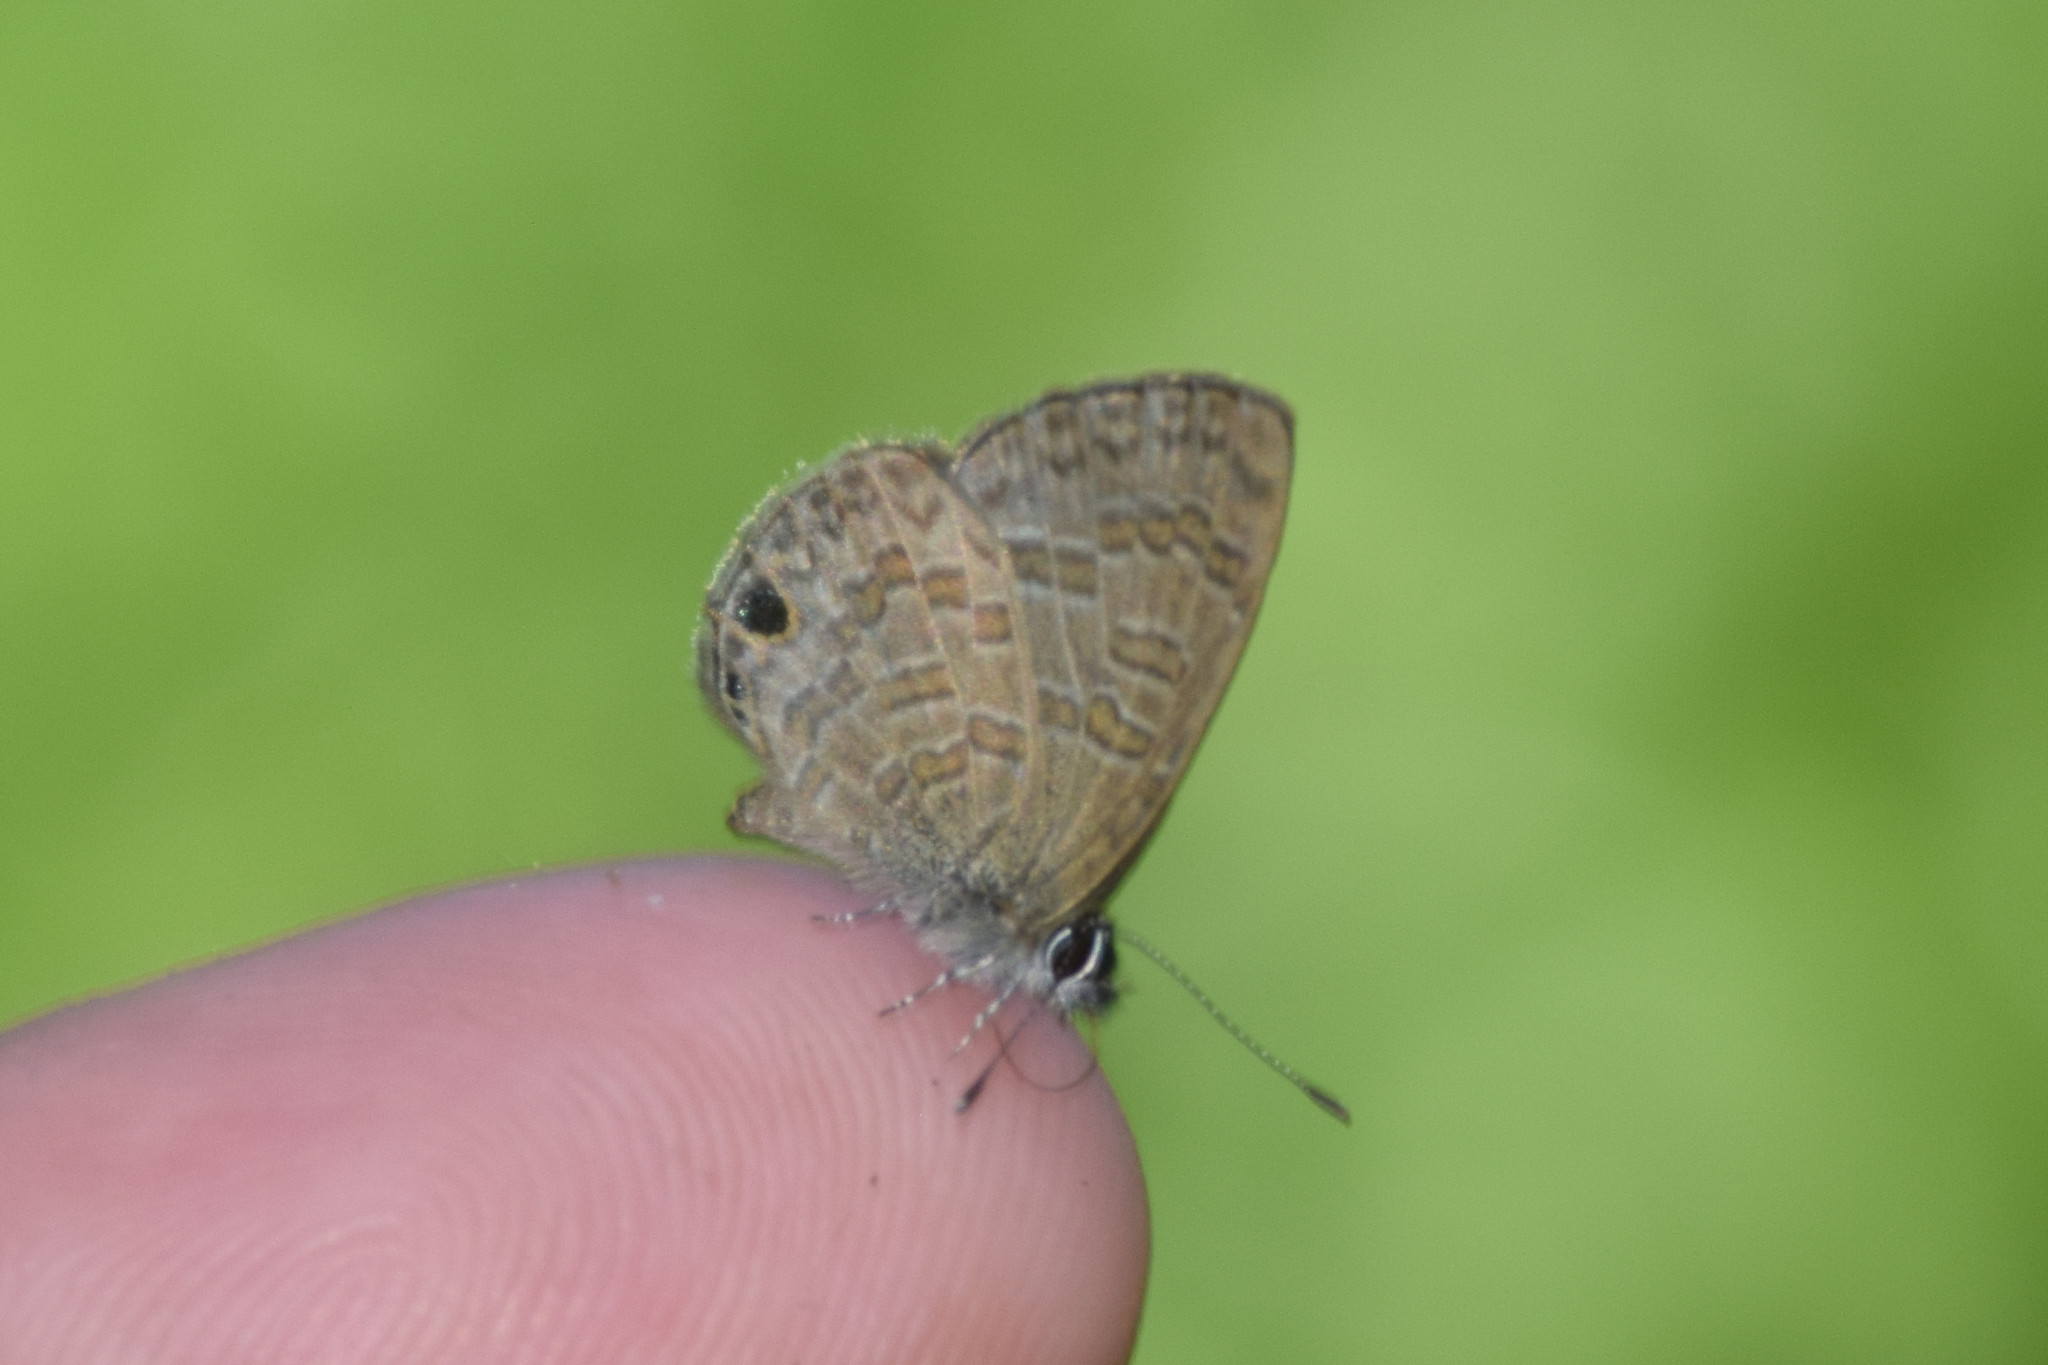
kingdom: Animalia
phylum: Arthropoda
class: Insecta
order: Lepidoptera
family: Lycaenidae
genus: Prosotas
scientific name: Prosotas nora
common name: Common line blue
